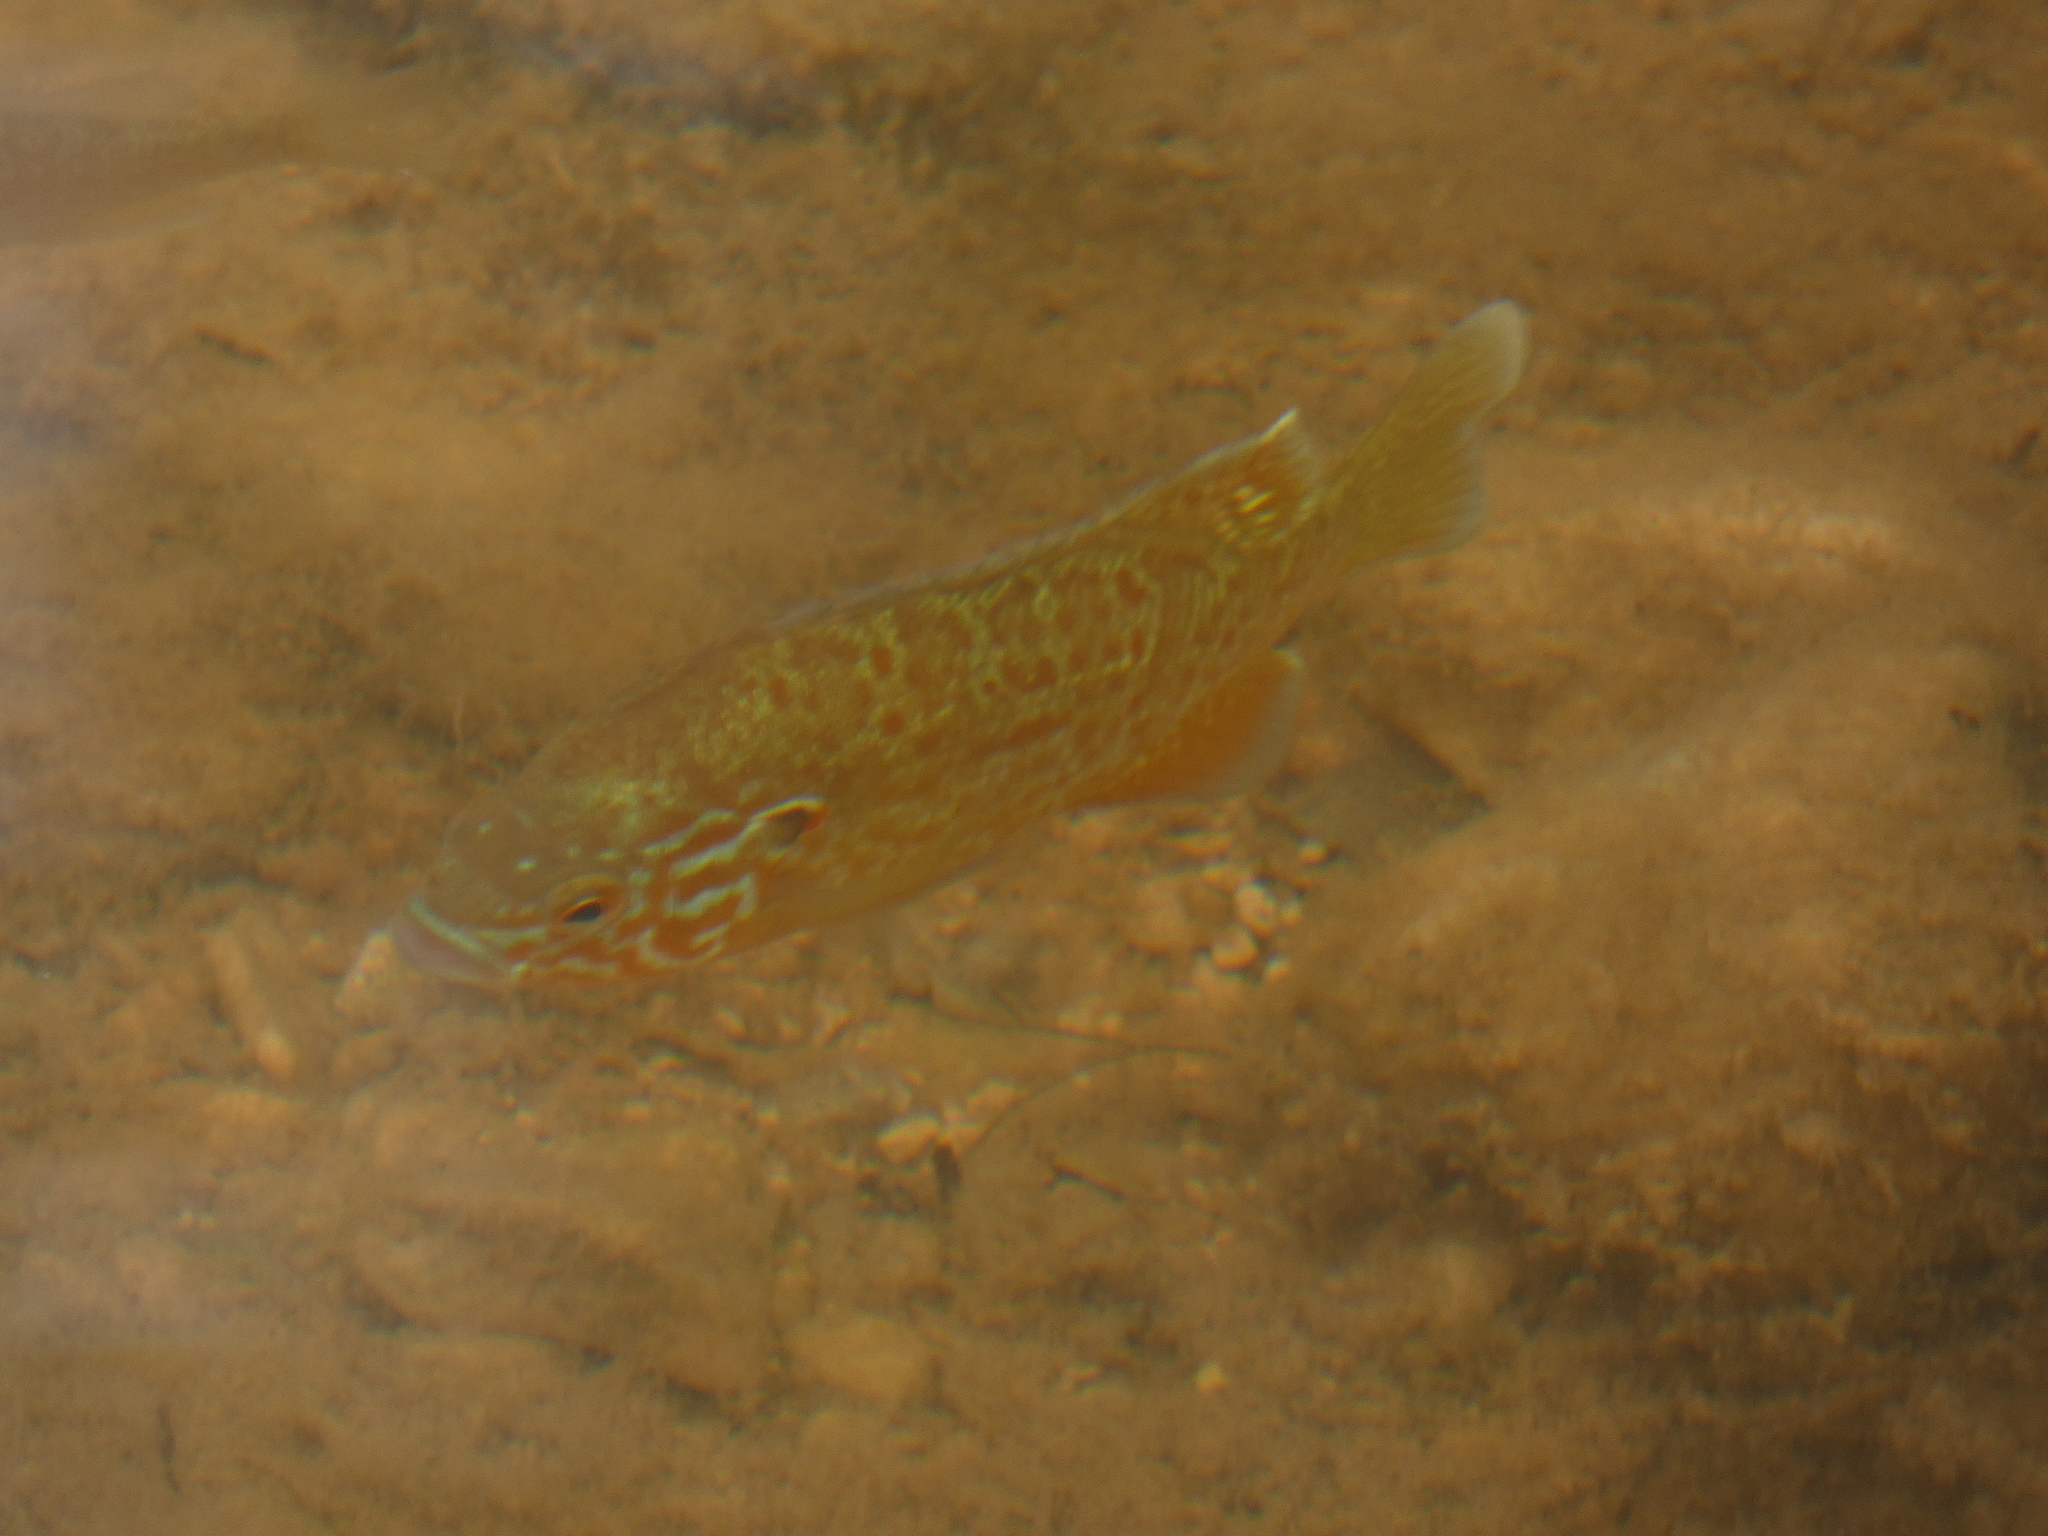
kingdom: Animalia
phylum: Chordata
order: Perciformes
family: Centrarchidae
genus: Lepomis
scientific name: Lepomis gibbosus
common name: Pumpkinseed
